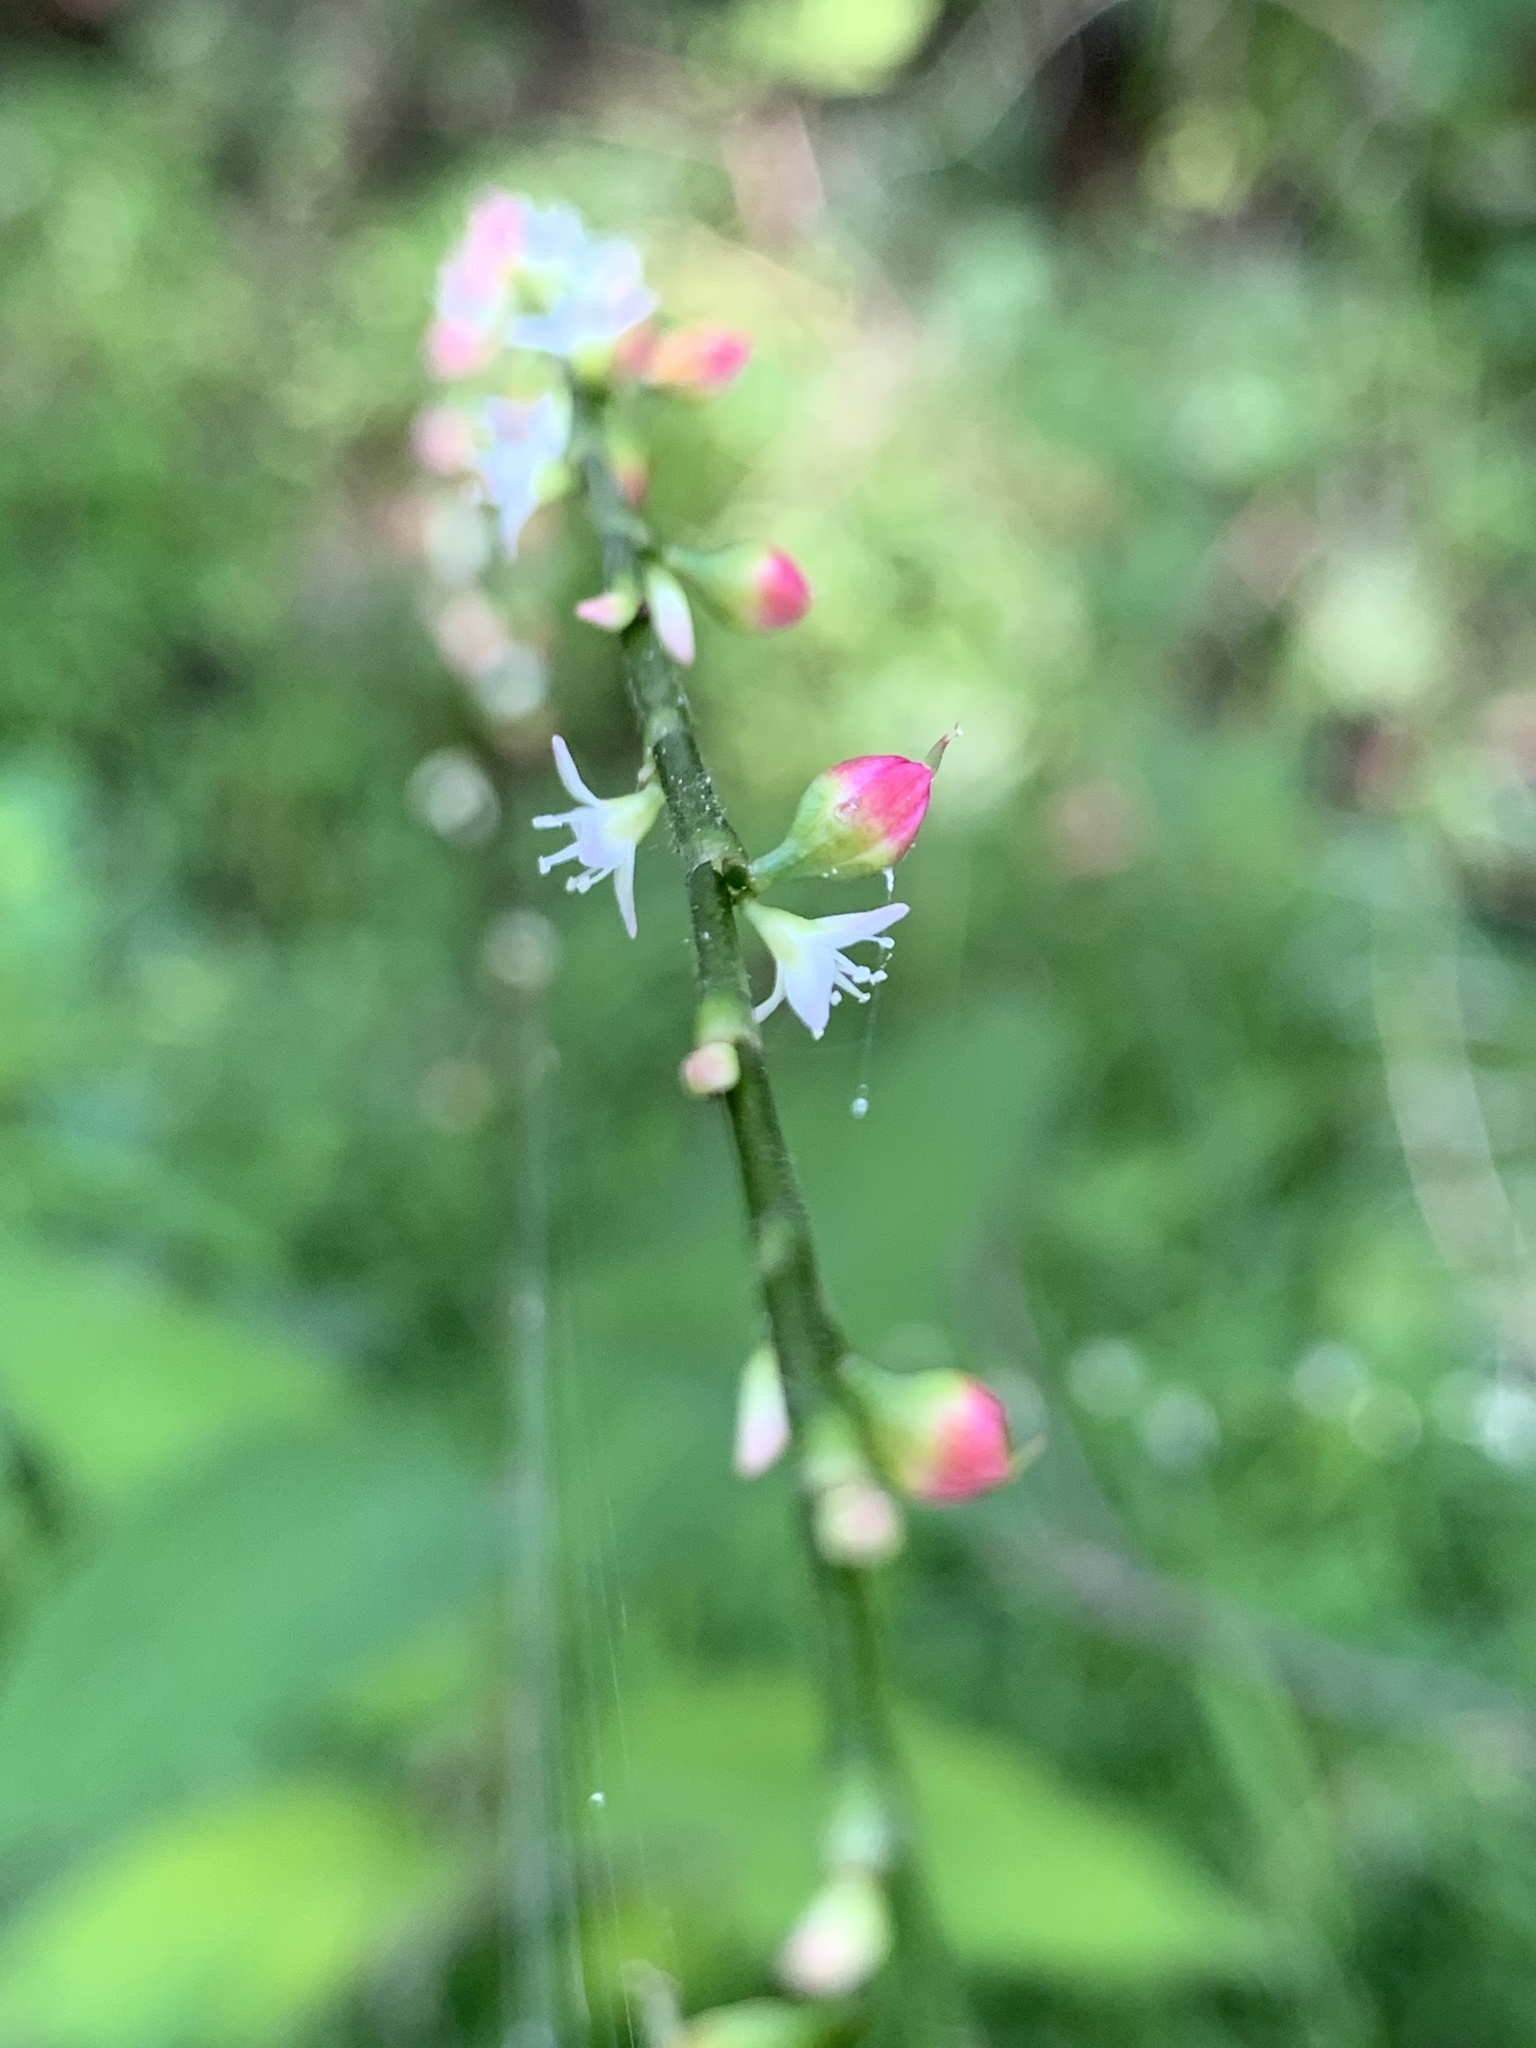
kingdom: Plantae
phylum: Tracheophyta
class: Magnoliopsida
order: Caryophyllales
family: Polygonaceae
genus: Persicaria
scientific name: Persicaria virginiana
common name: Jumpseed
